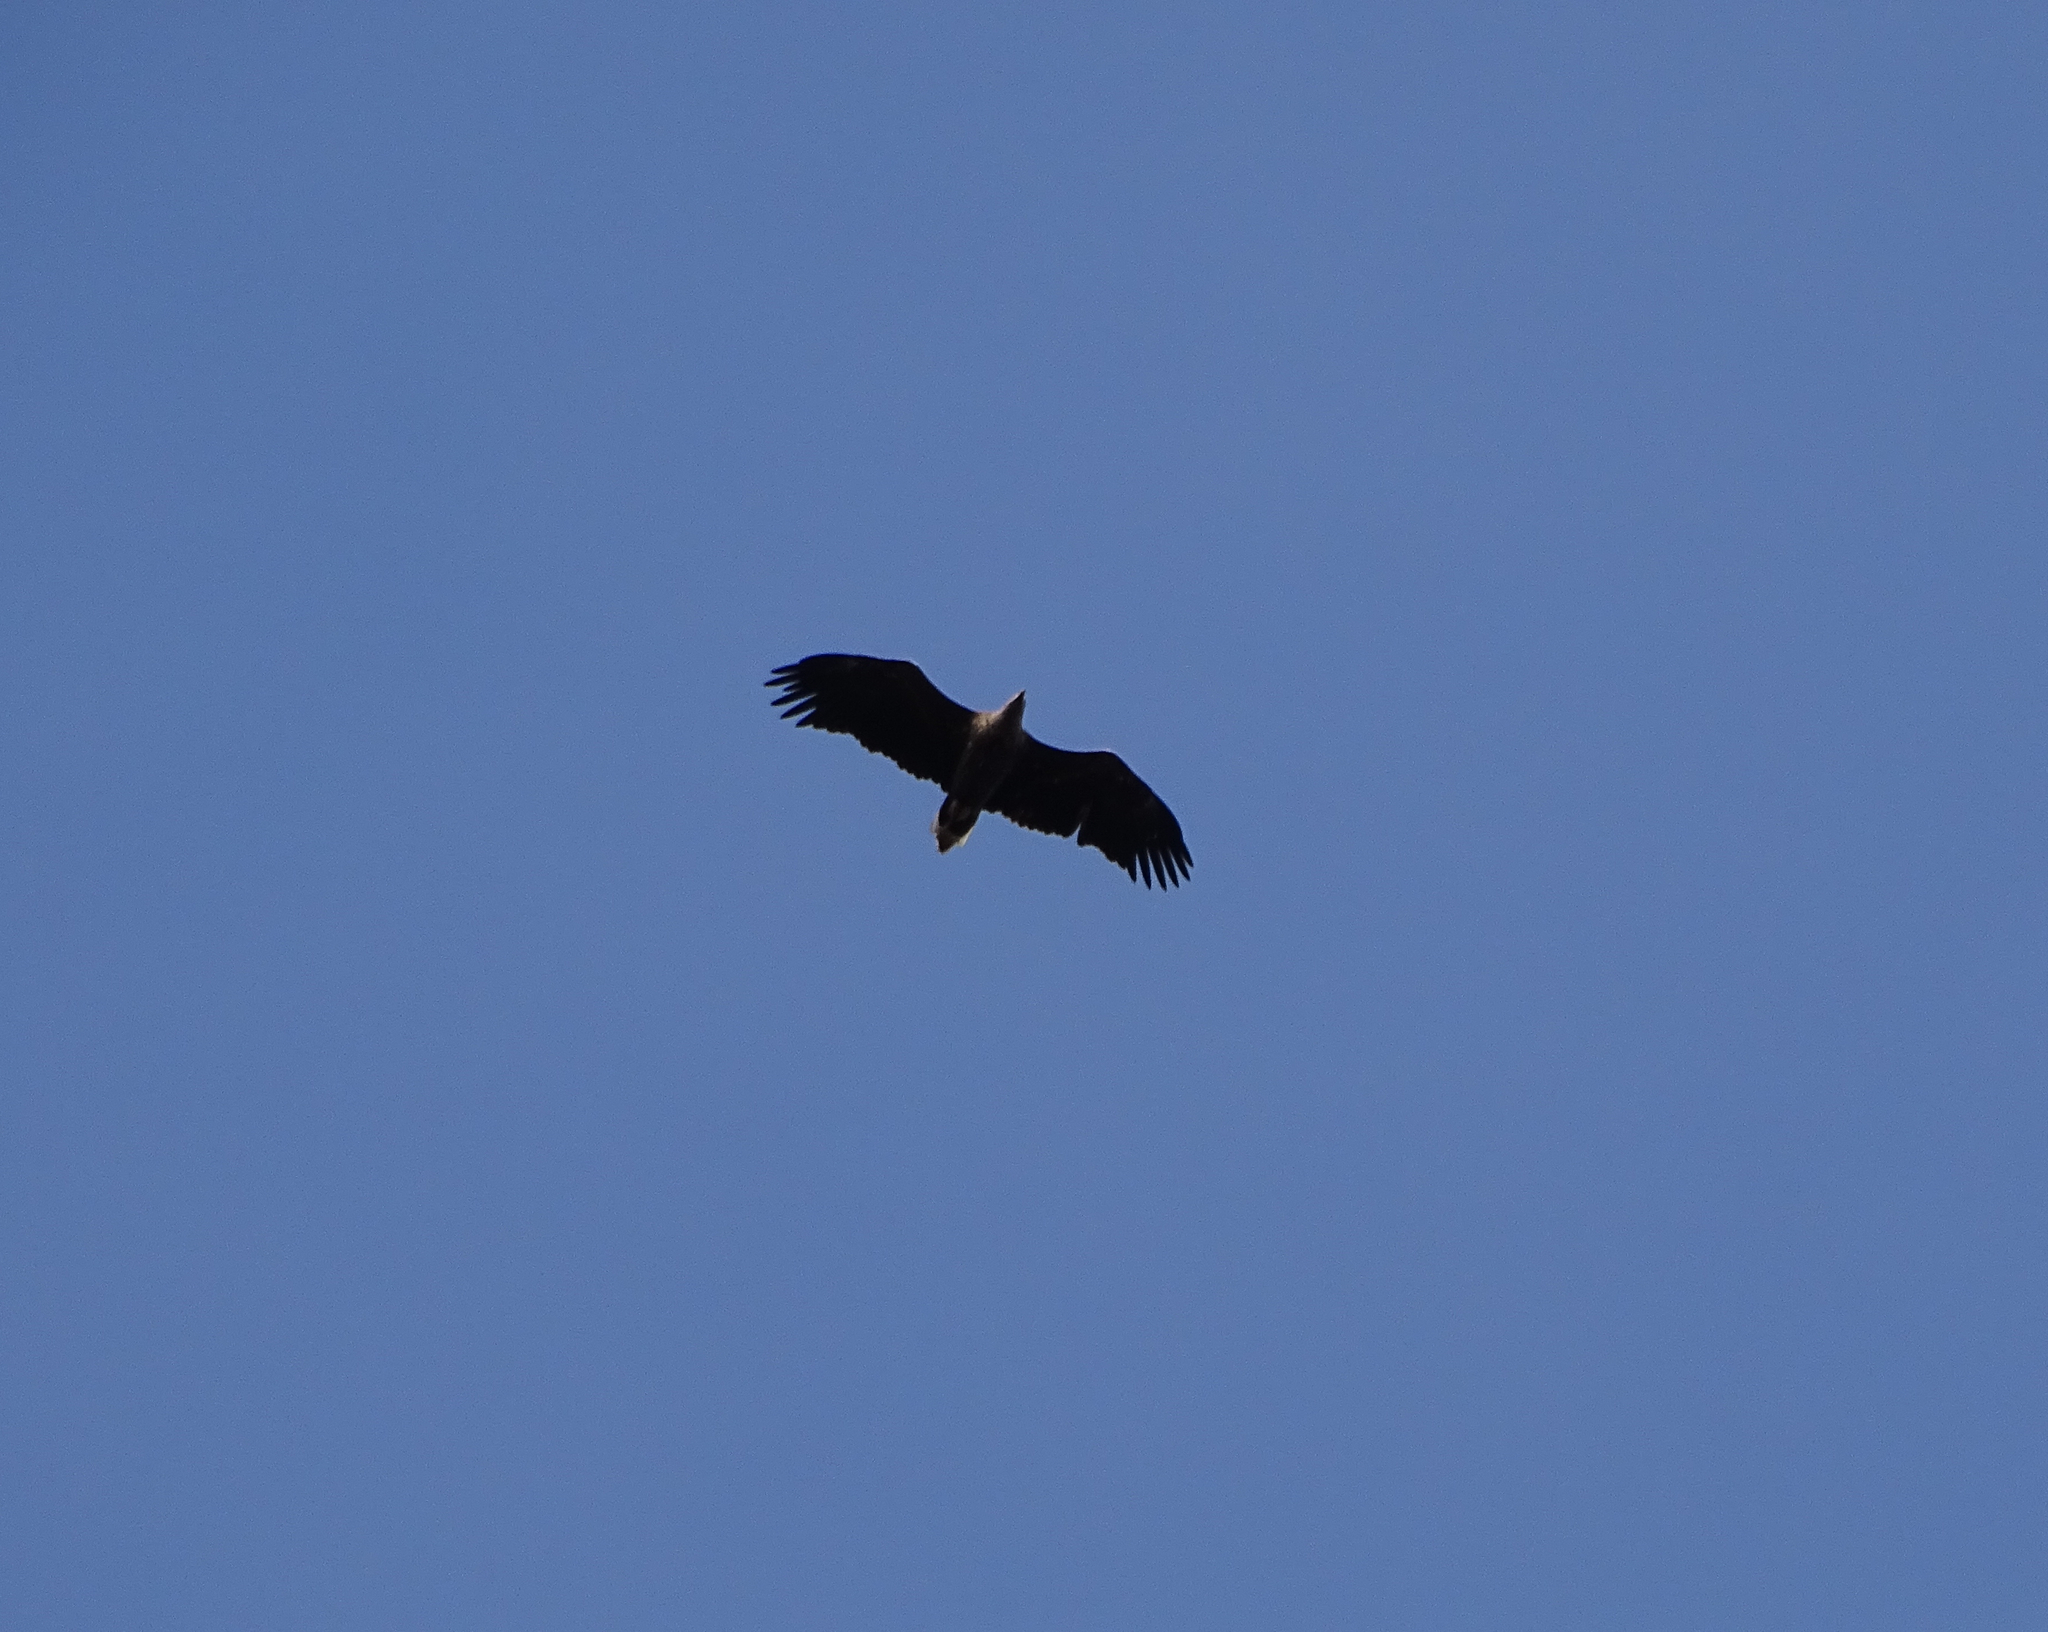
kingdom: Animalia
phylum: Chordata
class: Aves
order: Accipitriformes
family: Accipitridae
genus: Haliaeetus
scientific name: Haliaeetus albicilla
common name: White-tailed eagle
